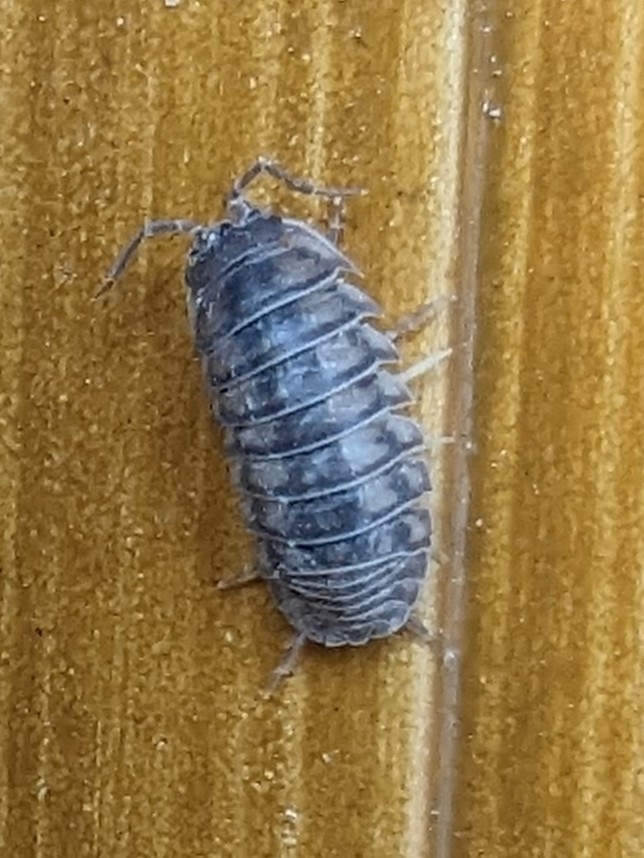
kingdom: Animalia
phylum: Arthropoda
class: Malacostraca
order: Isopoda
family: Armadillidiidae
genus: Armadillidium
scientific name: Armadillidium nasatum
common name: Isopod
